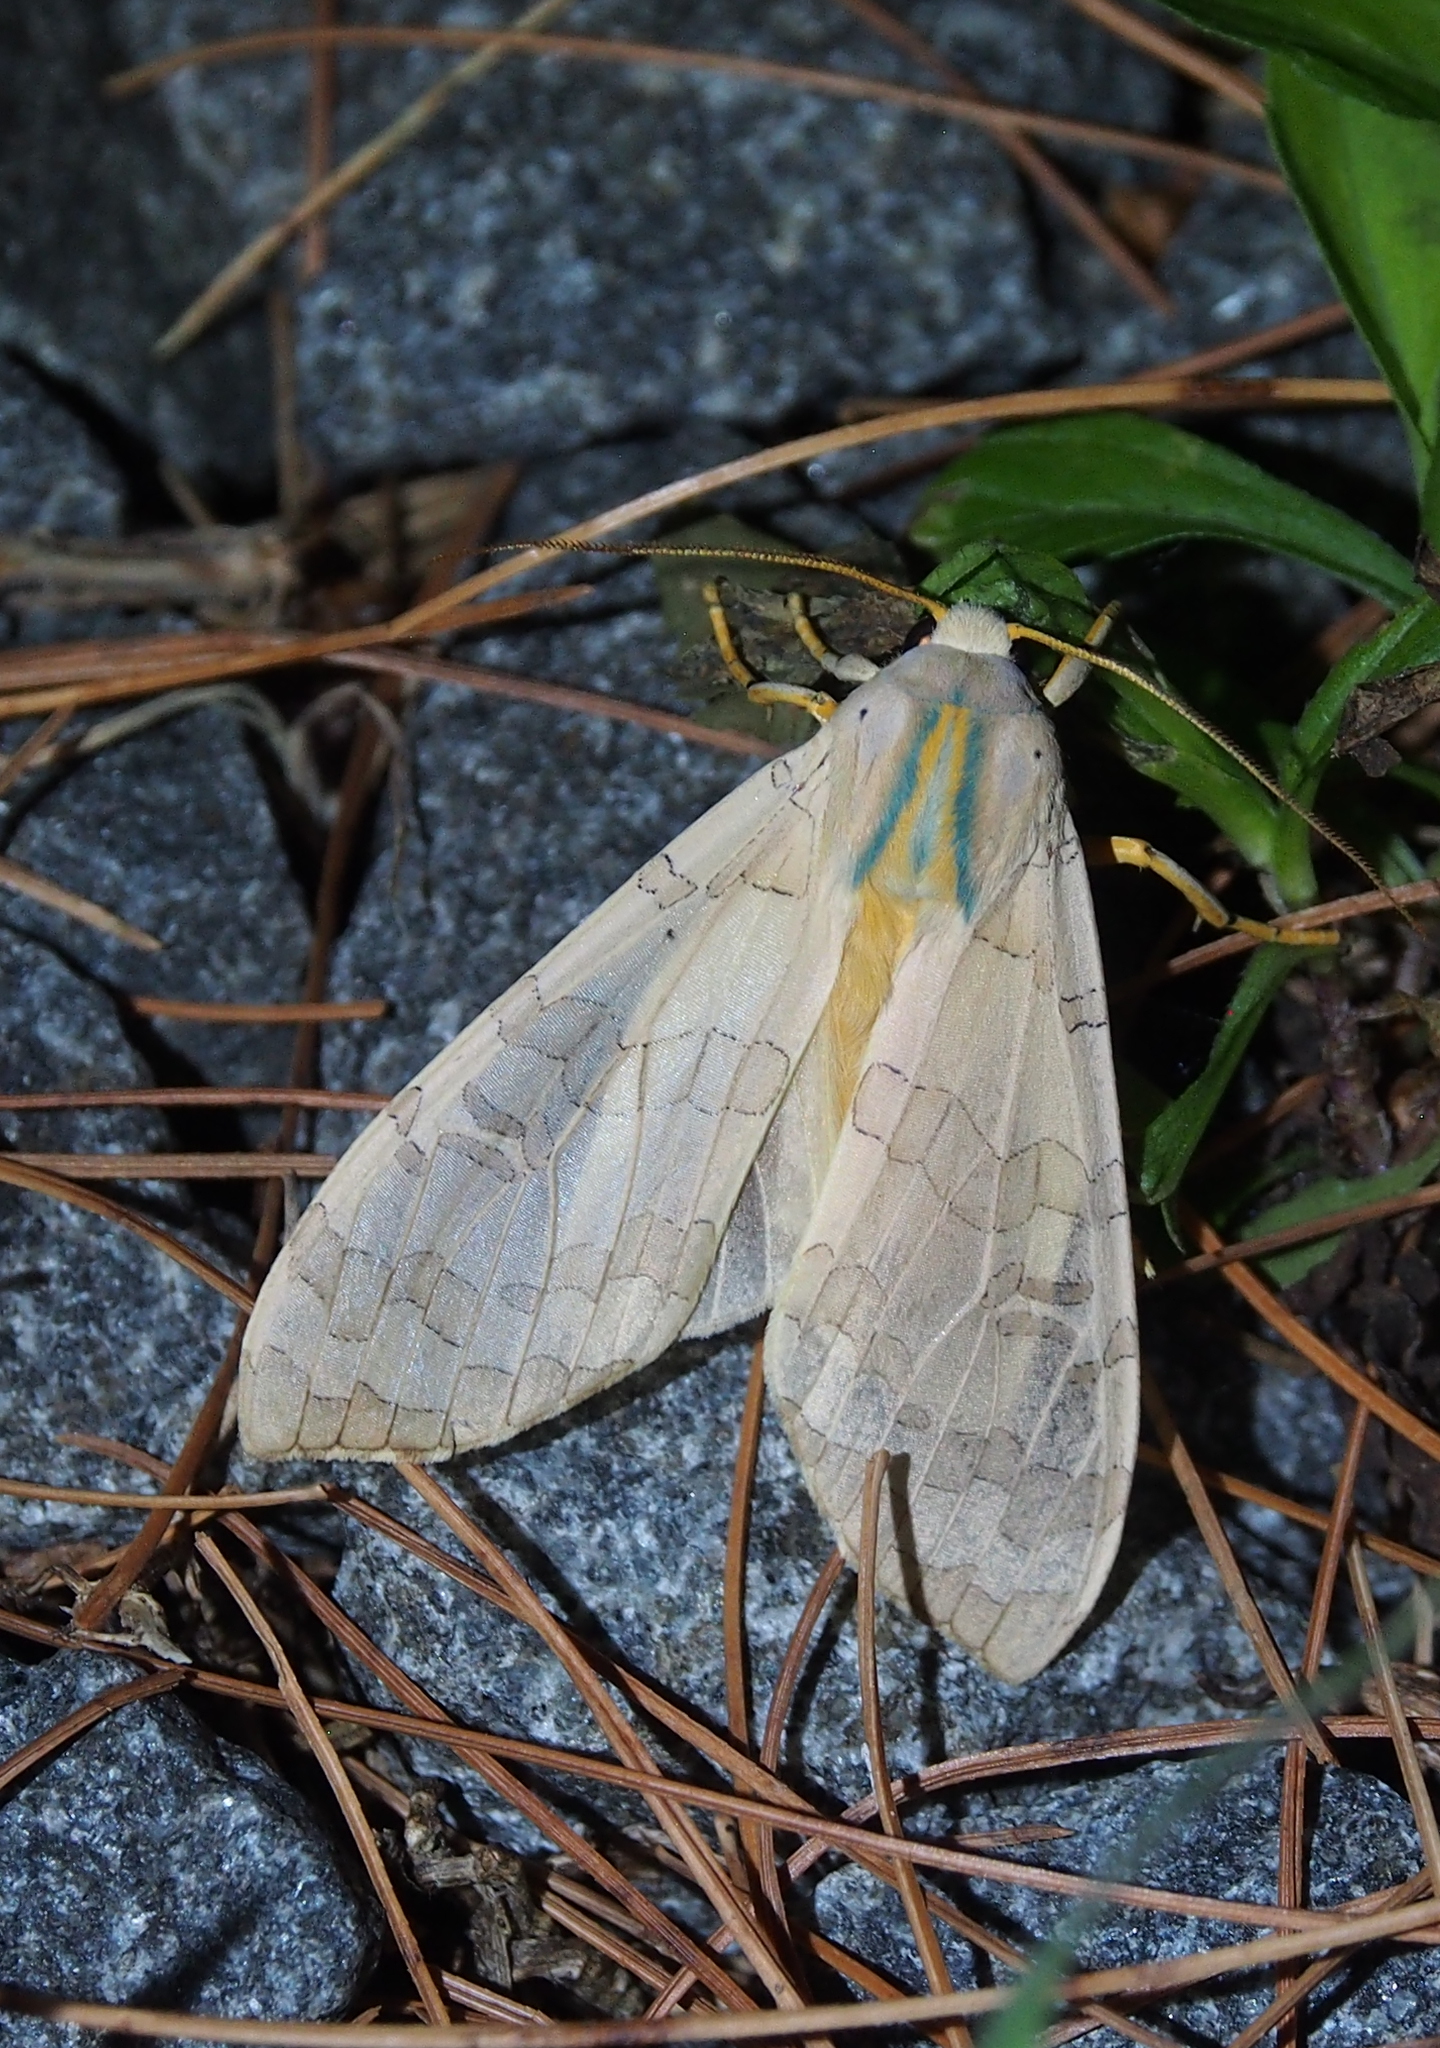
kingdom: Animalia
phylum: Arthropoda
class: Insecta
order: Lepidoptera
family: Erebidae
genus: Halysidota
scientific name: Halysidota
